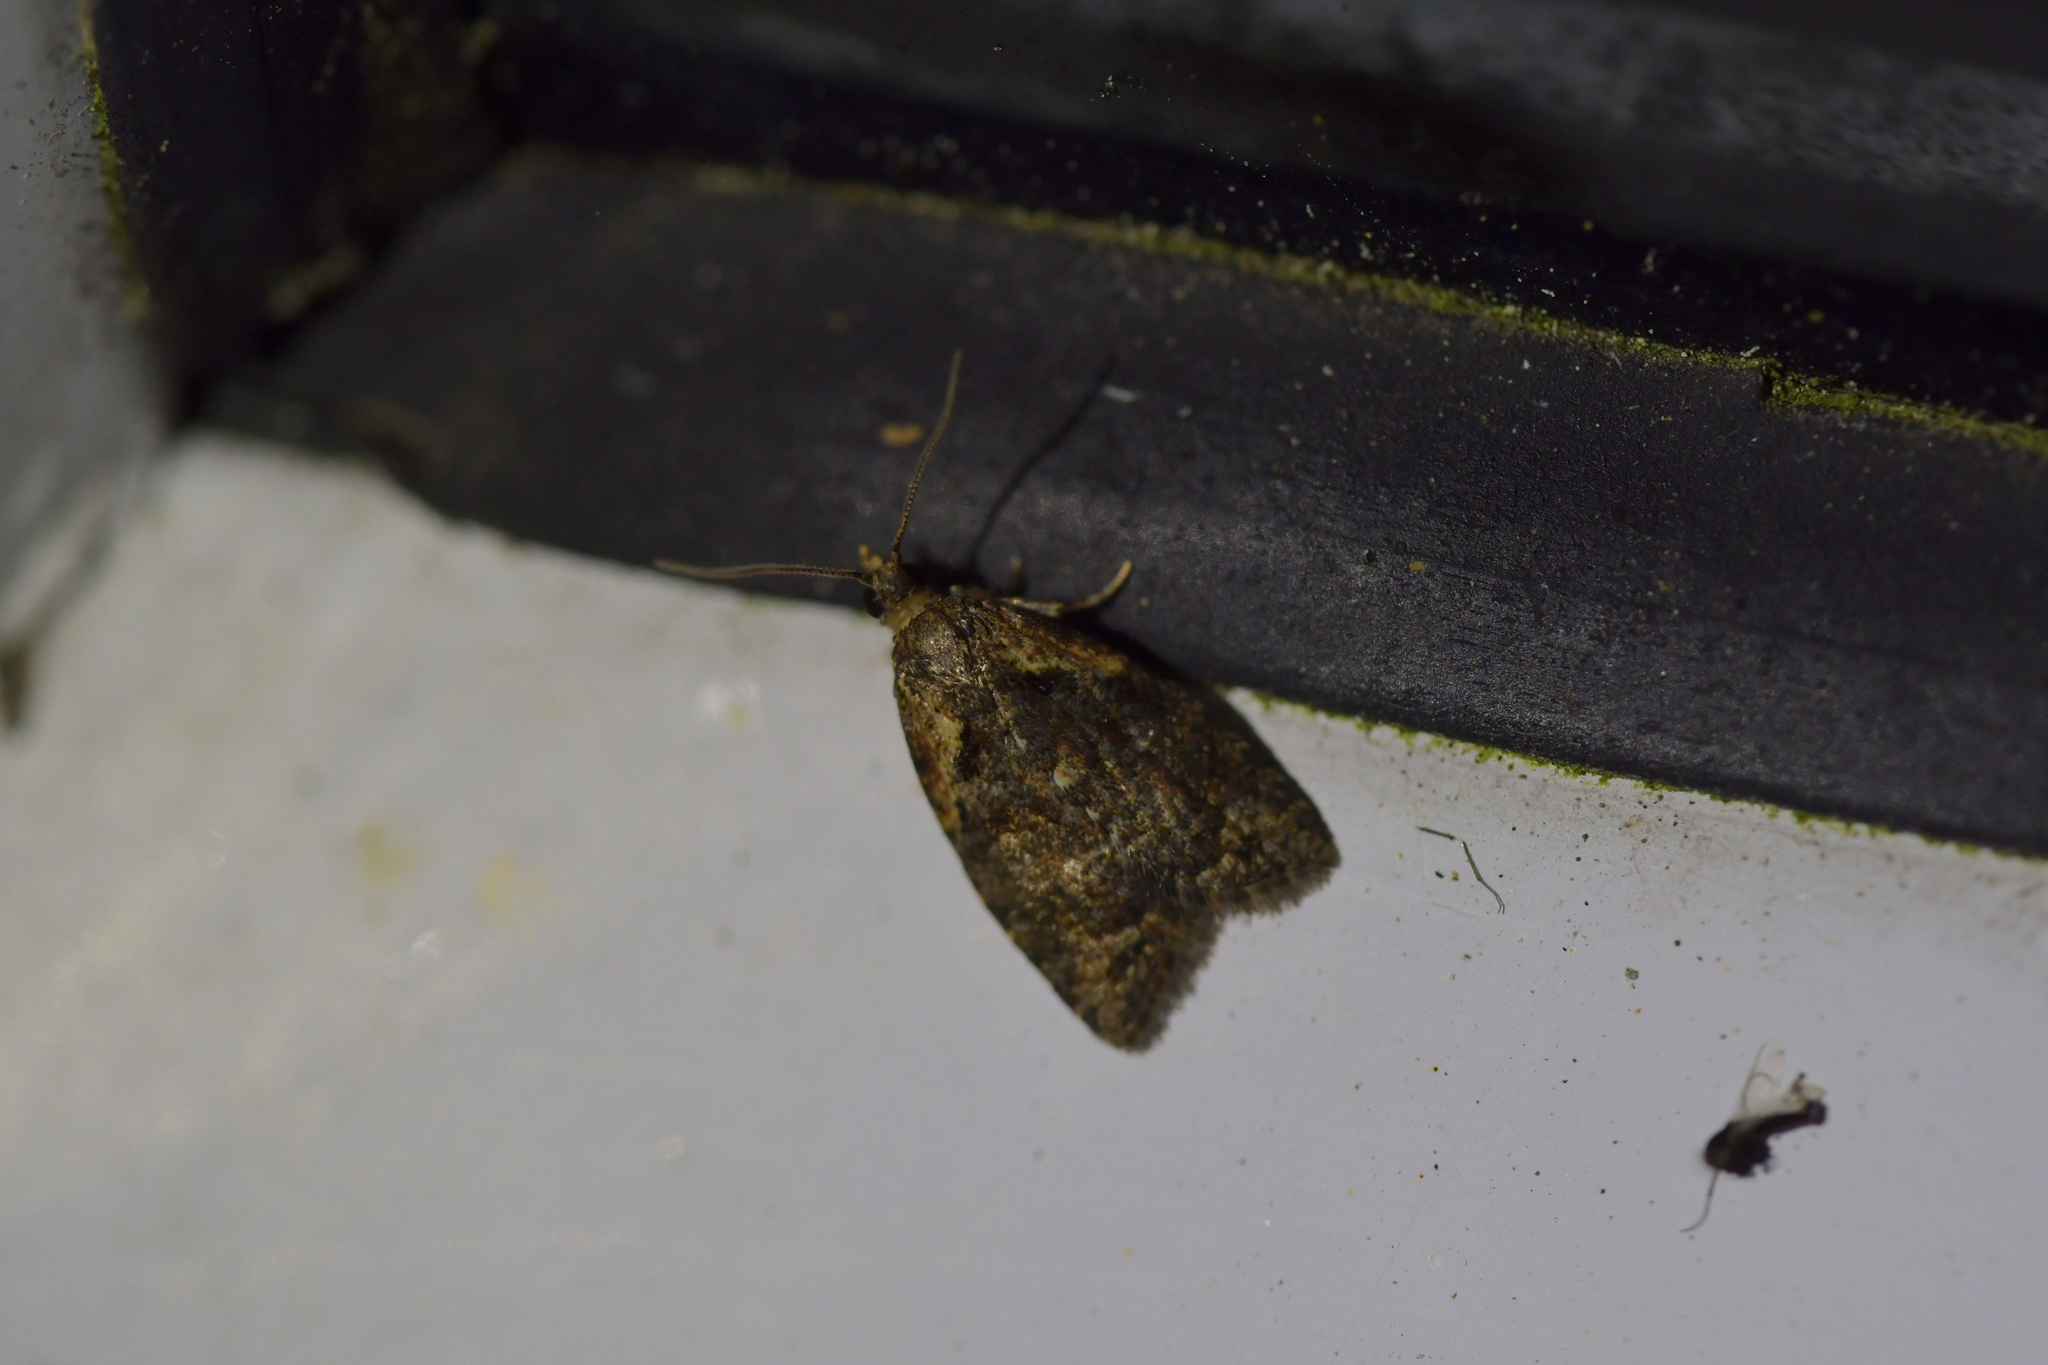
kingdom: Animalia
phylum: Arthropoda
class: Insecta
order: Lepidoptera
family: Tortricidae
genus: Capua
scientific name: Capua intractana
